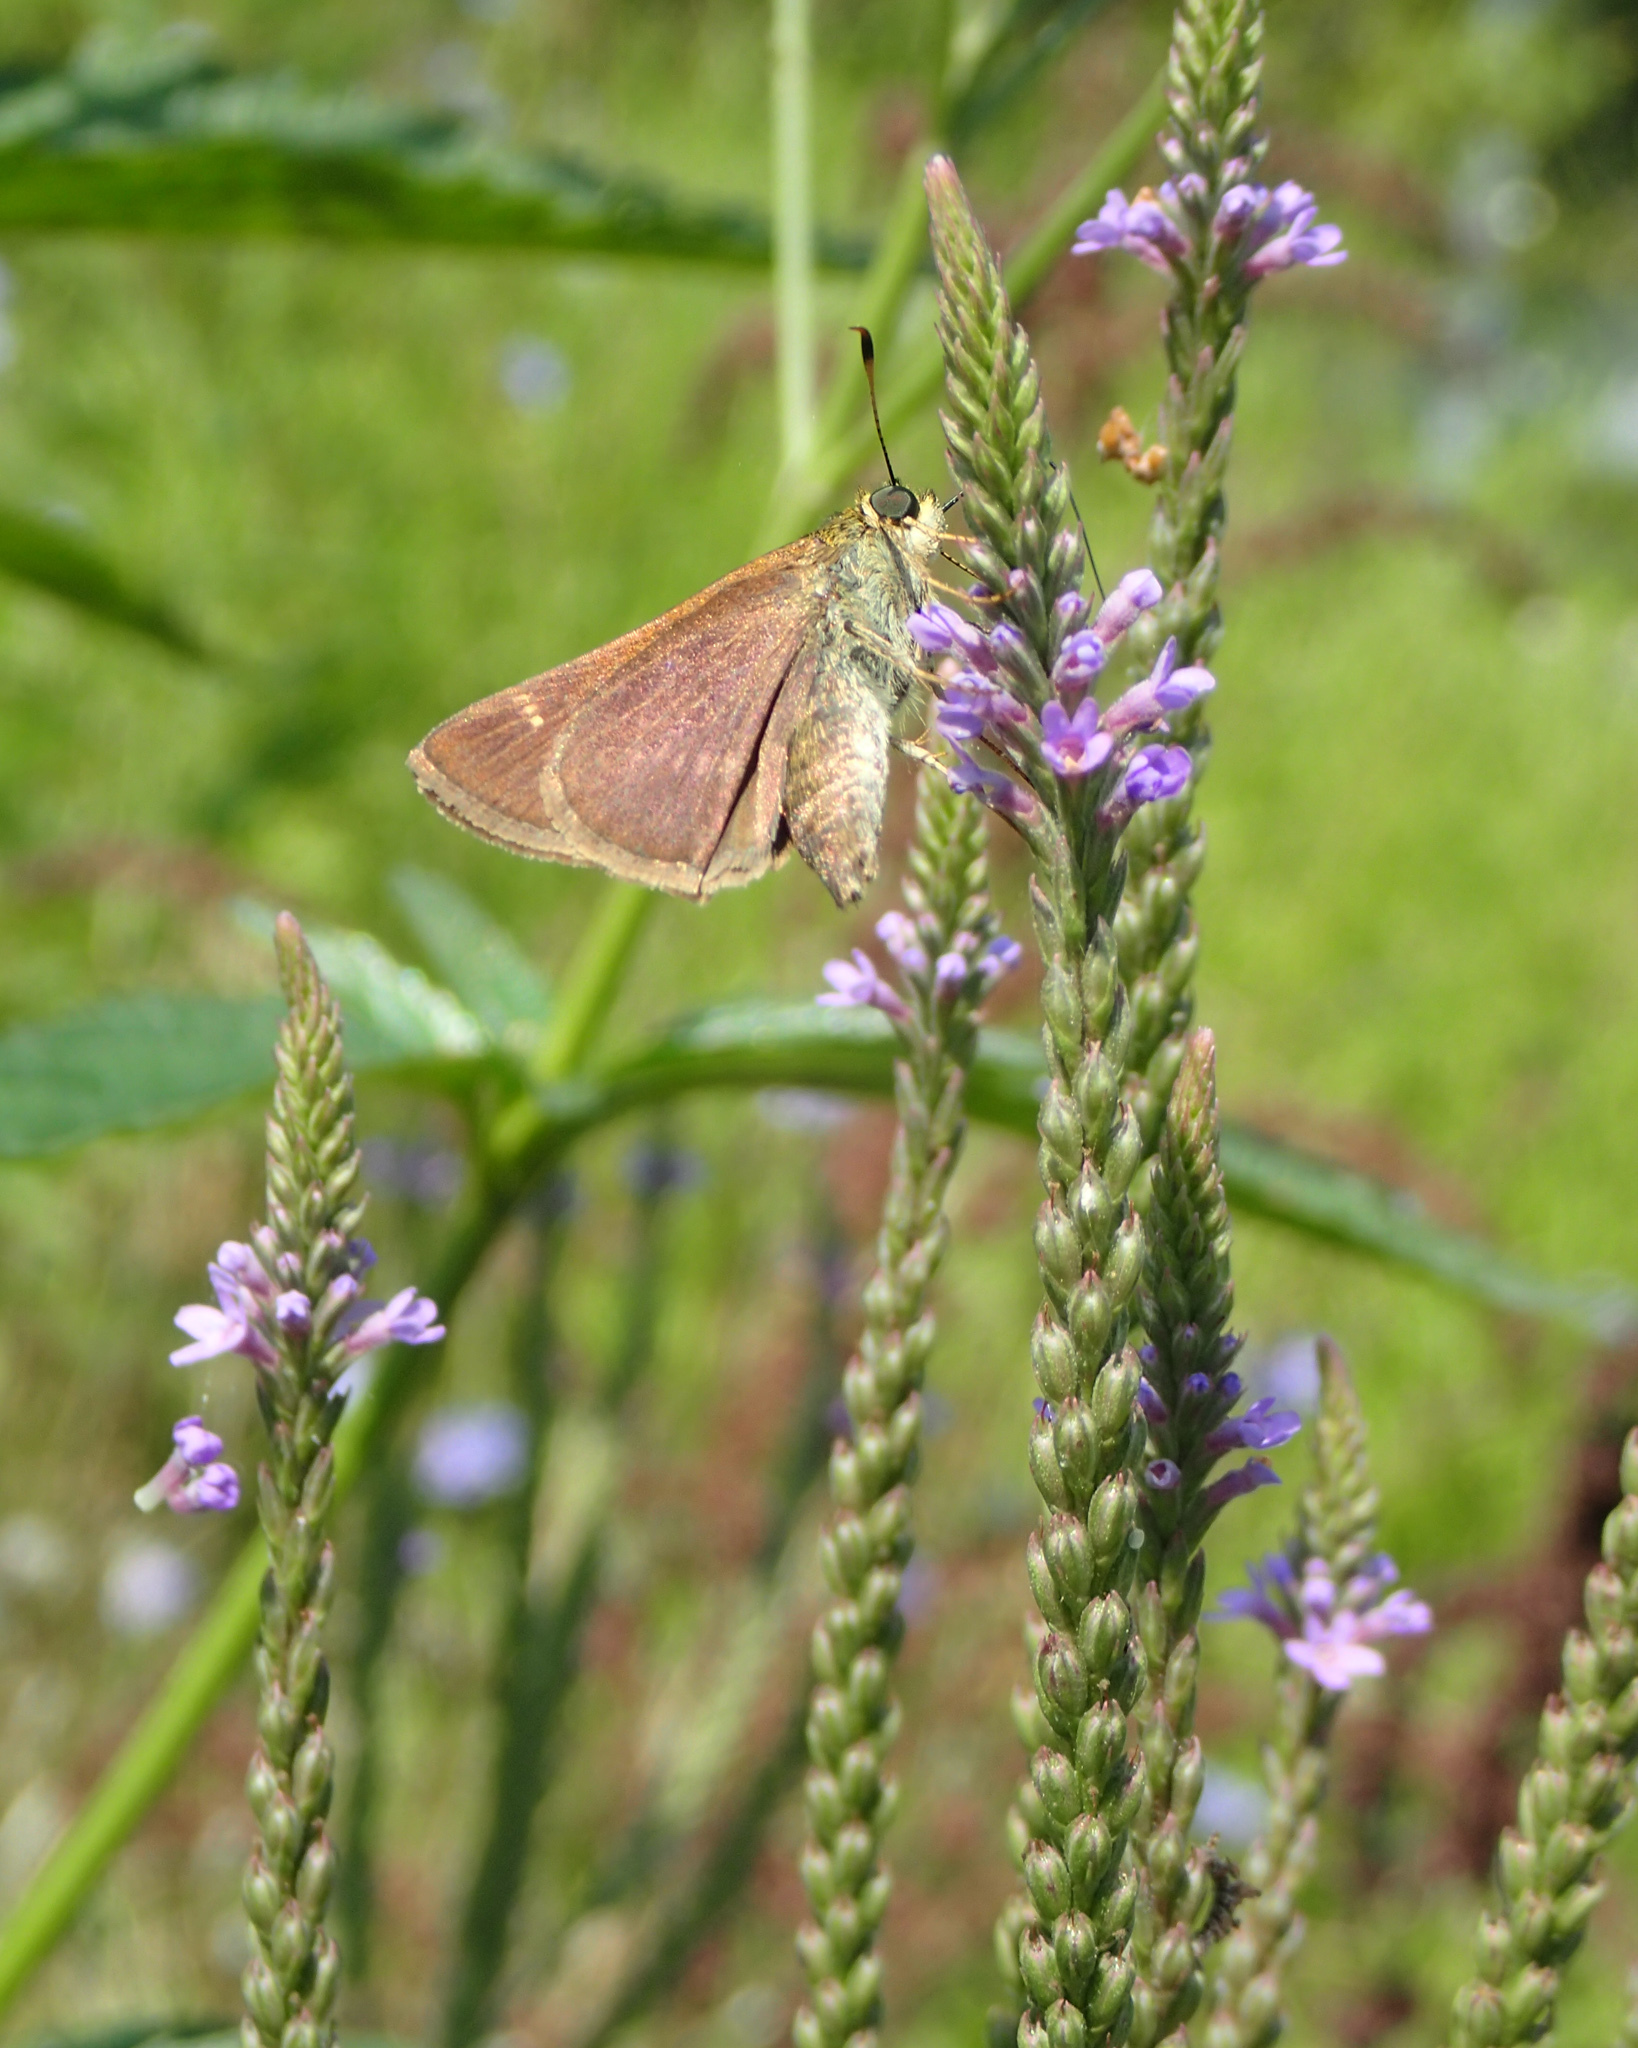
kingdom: Animalia
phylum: Arthropoda
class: Insecta
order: Lepidoptera
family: Hesperiidae
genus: Vernia
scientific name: Vernia verna
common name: Little glassywing
